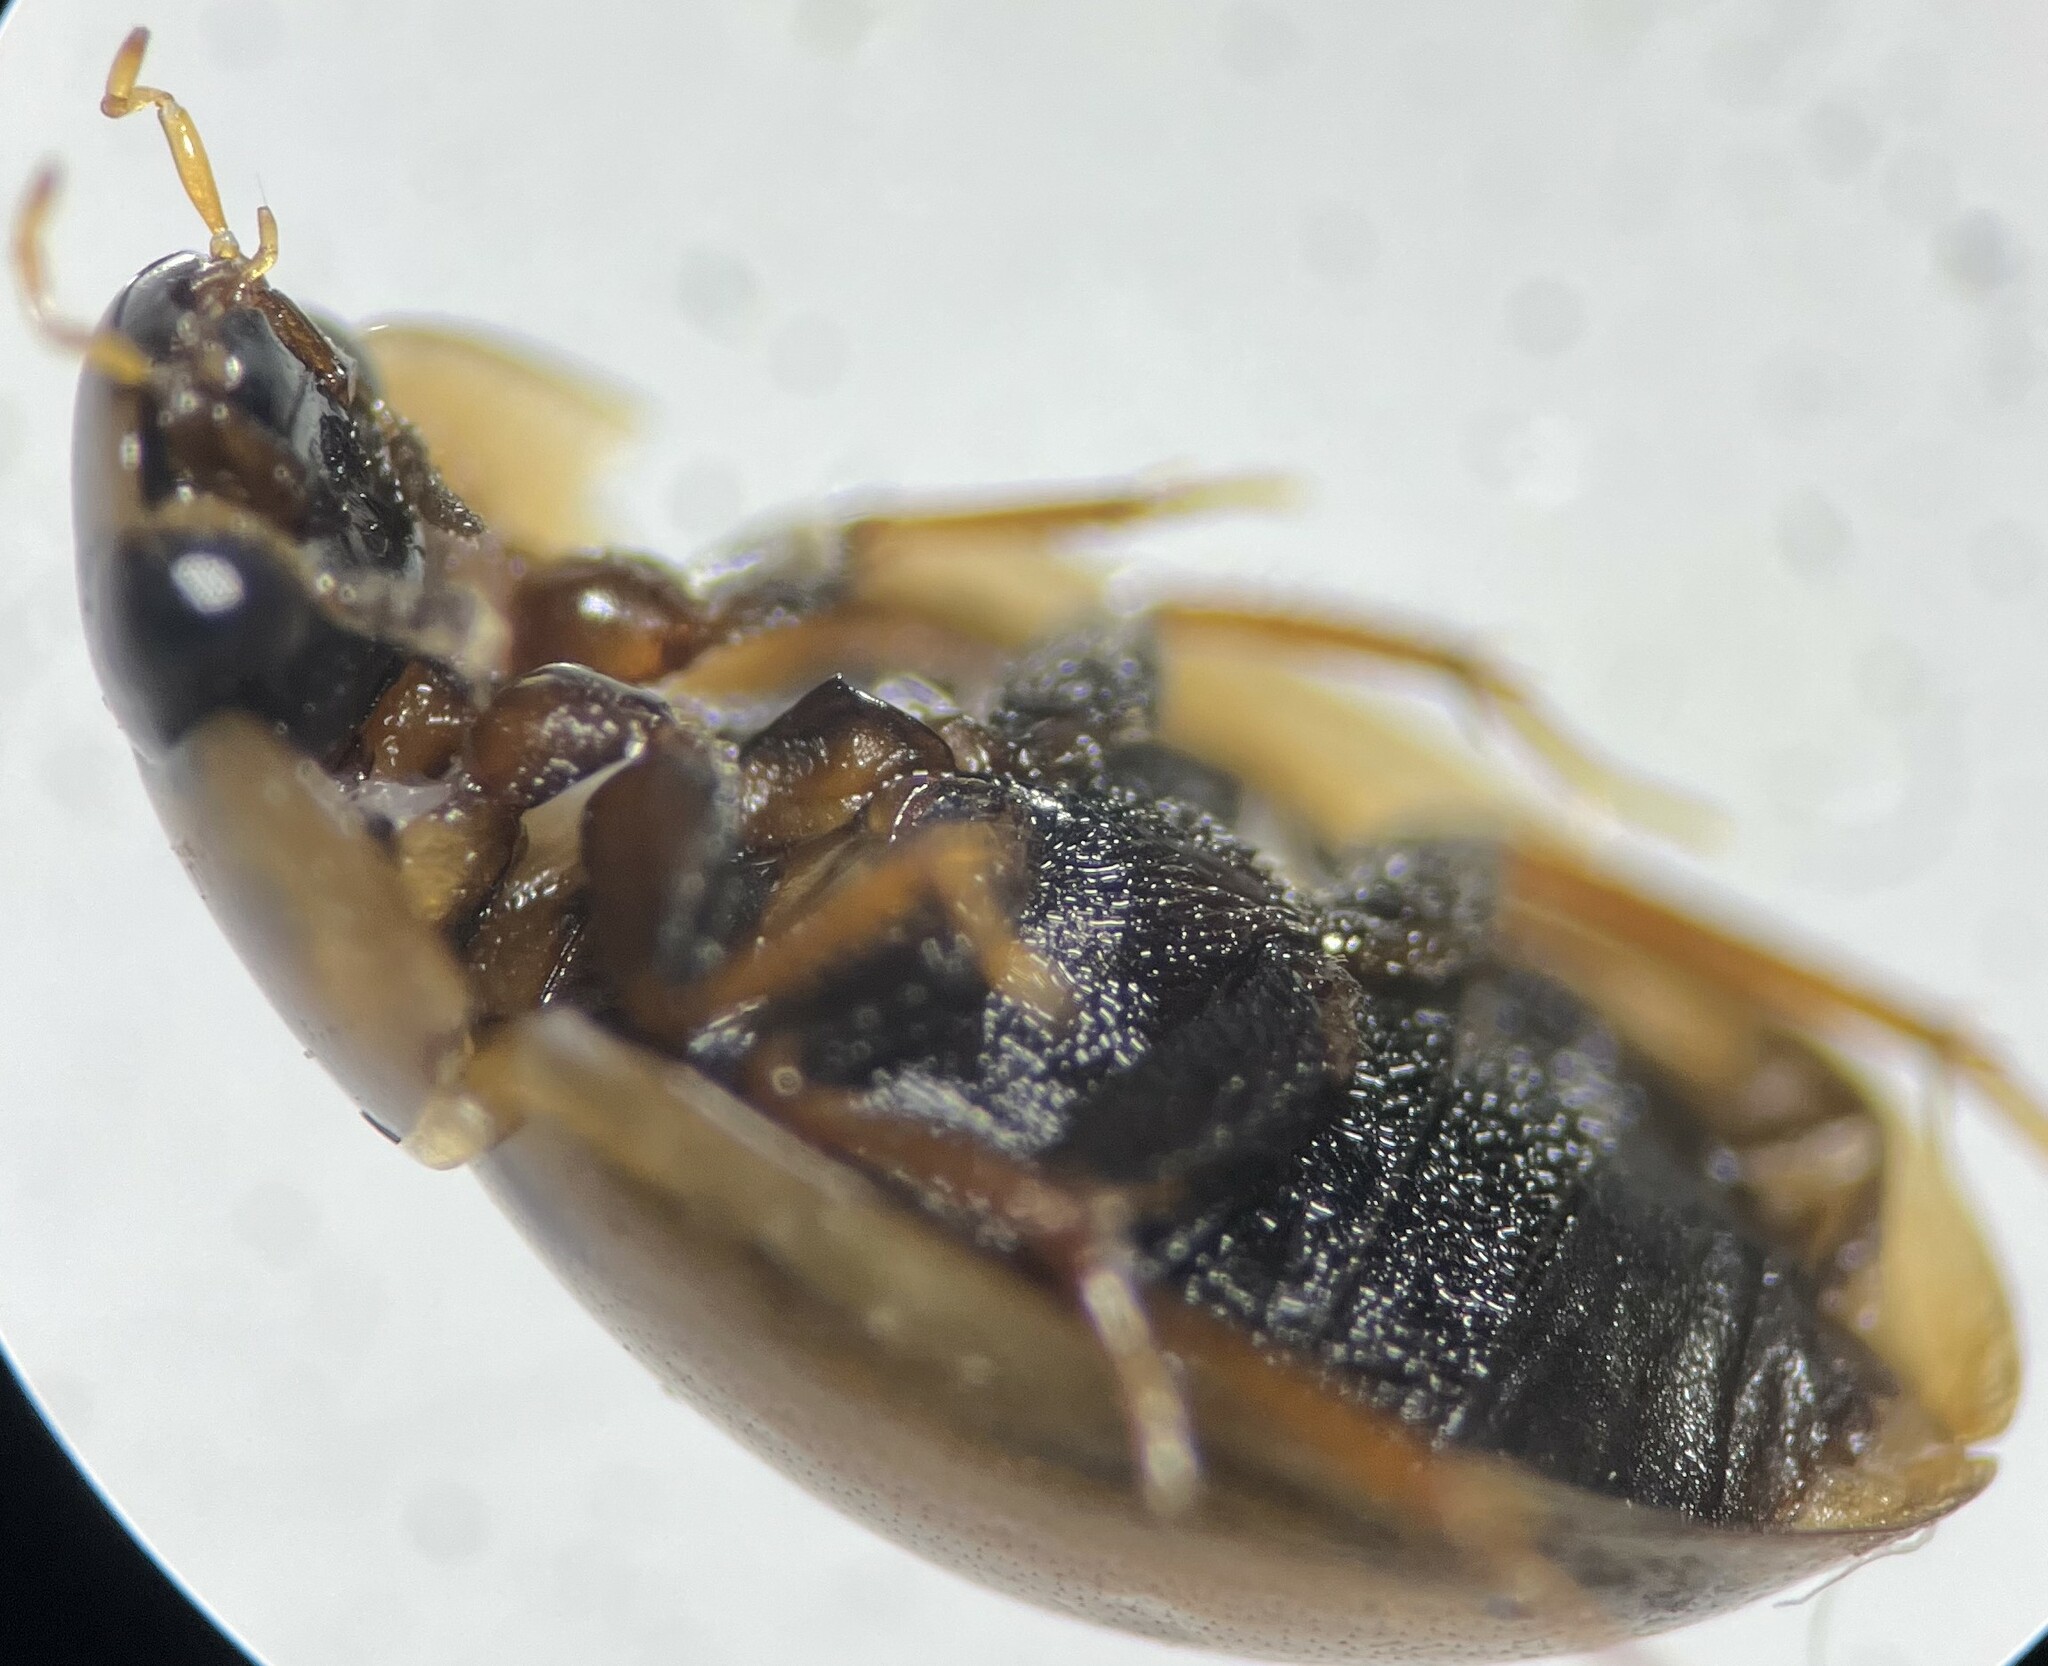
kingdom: Animalia
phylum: Arthropoda
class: Insecta
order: Coleoptera
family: Hydrophilidae
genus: Enochrus
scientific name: Enochrus sayi
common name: Water scavenger beetle
